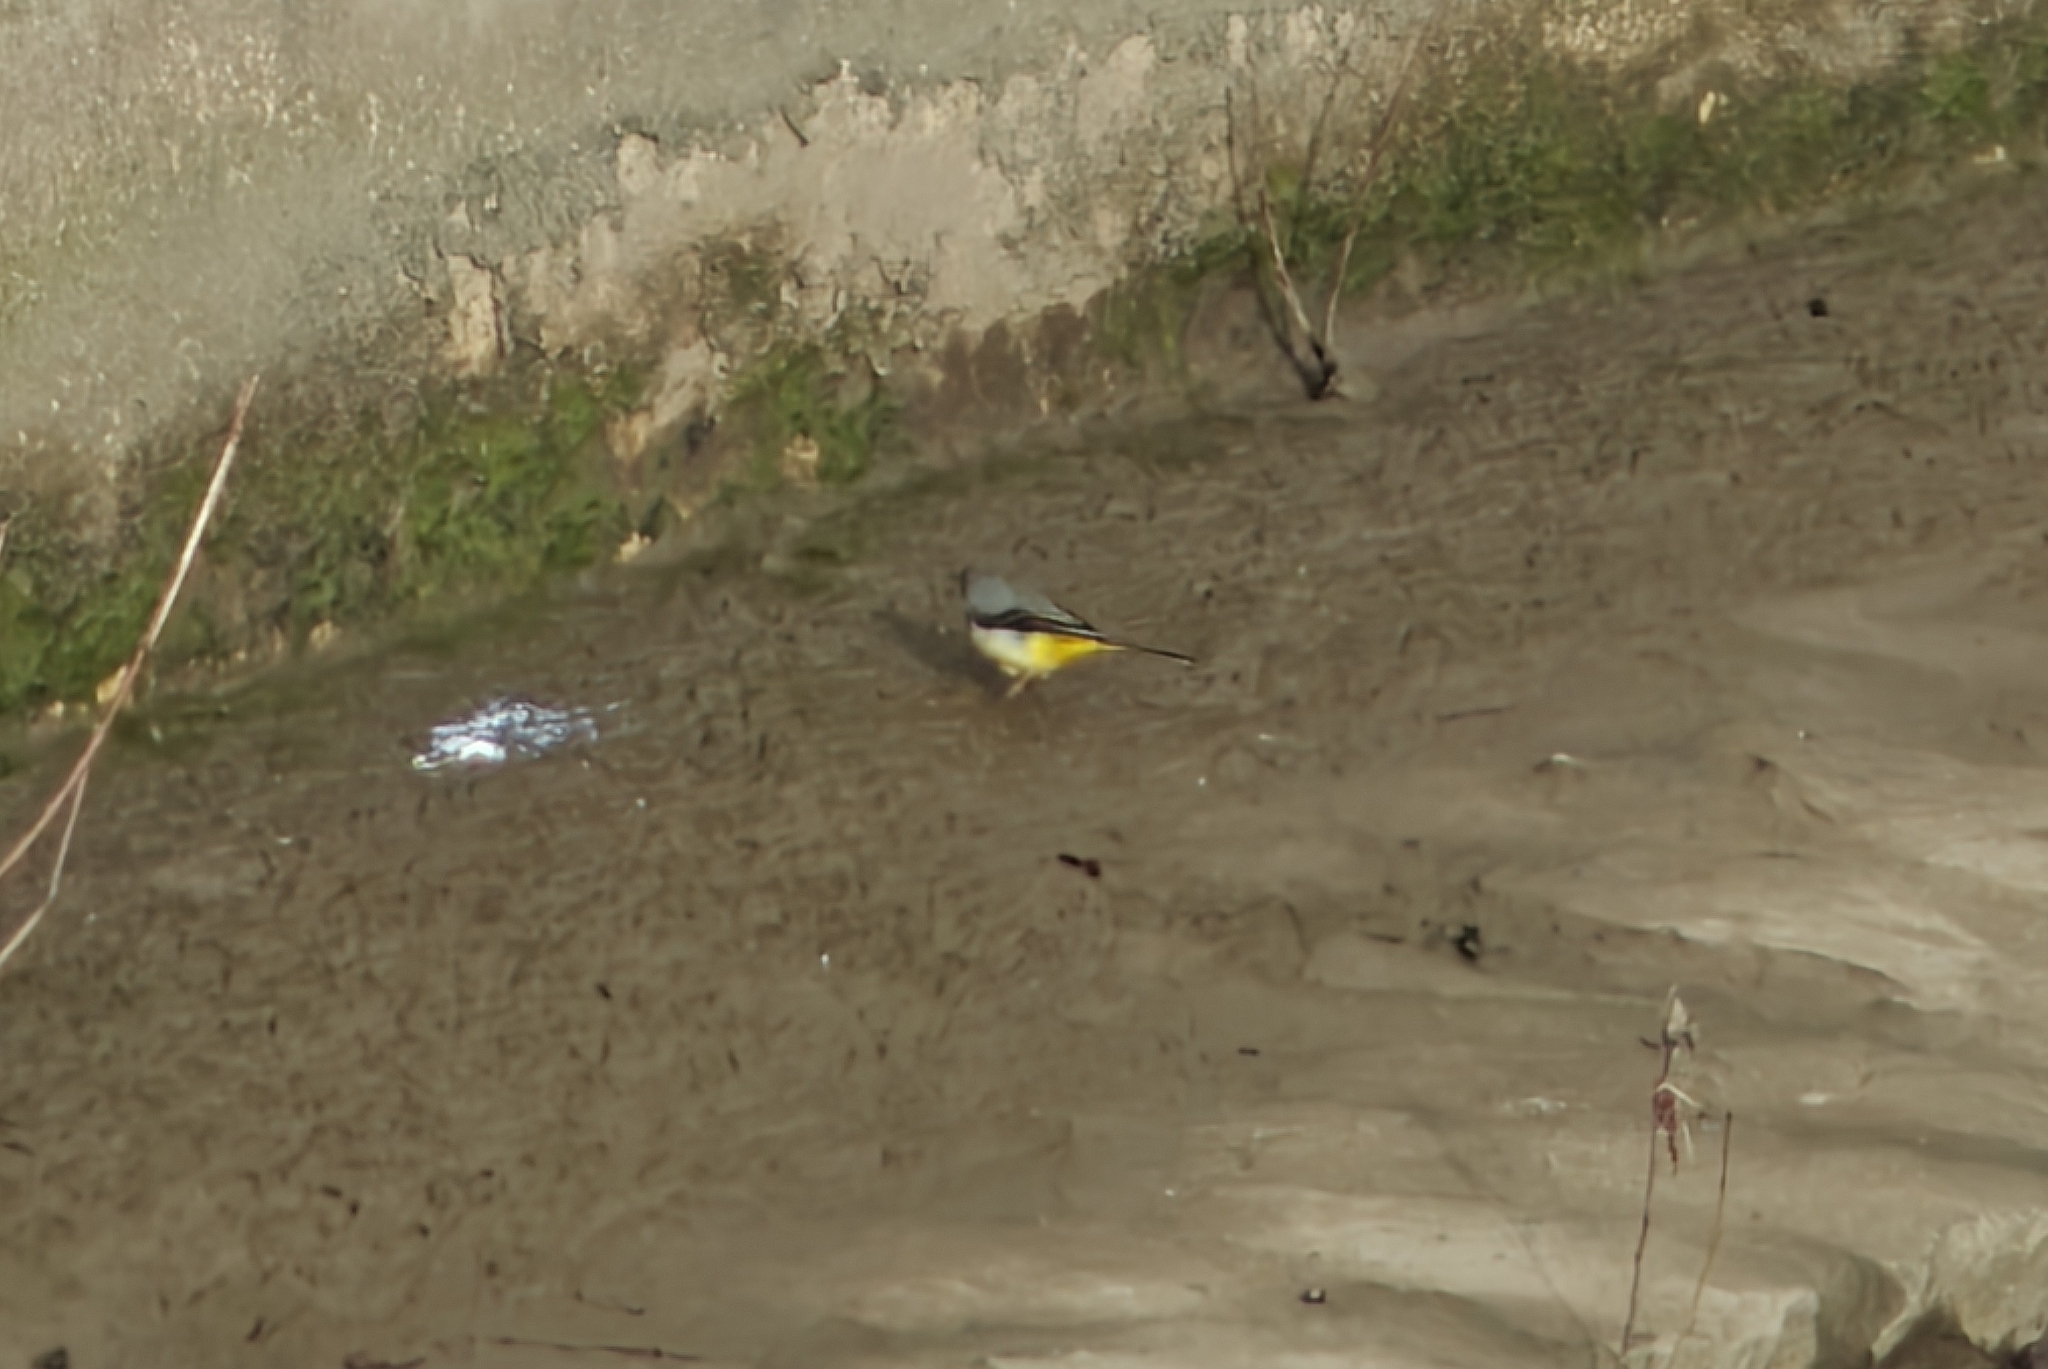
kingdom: Animalia
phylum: Chordata
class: Aves
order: Passeriformes
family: Motacillidae
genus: Motacilla
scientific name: Motacilla cinerea
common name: Grey wagtail
